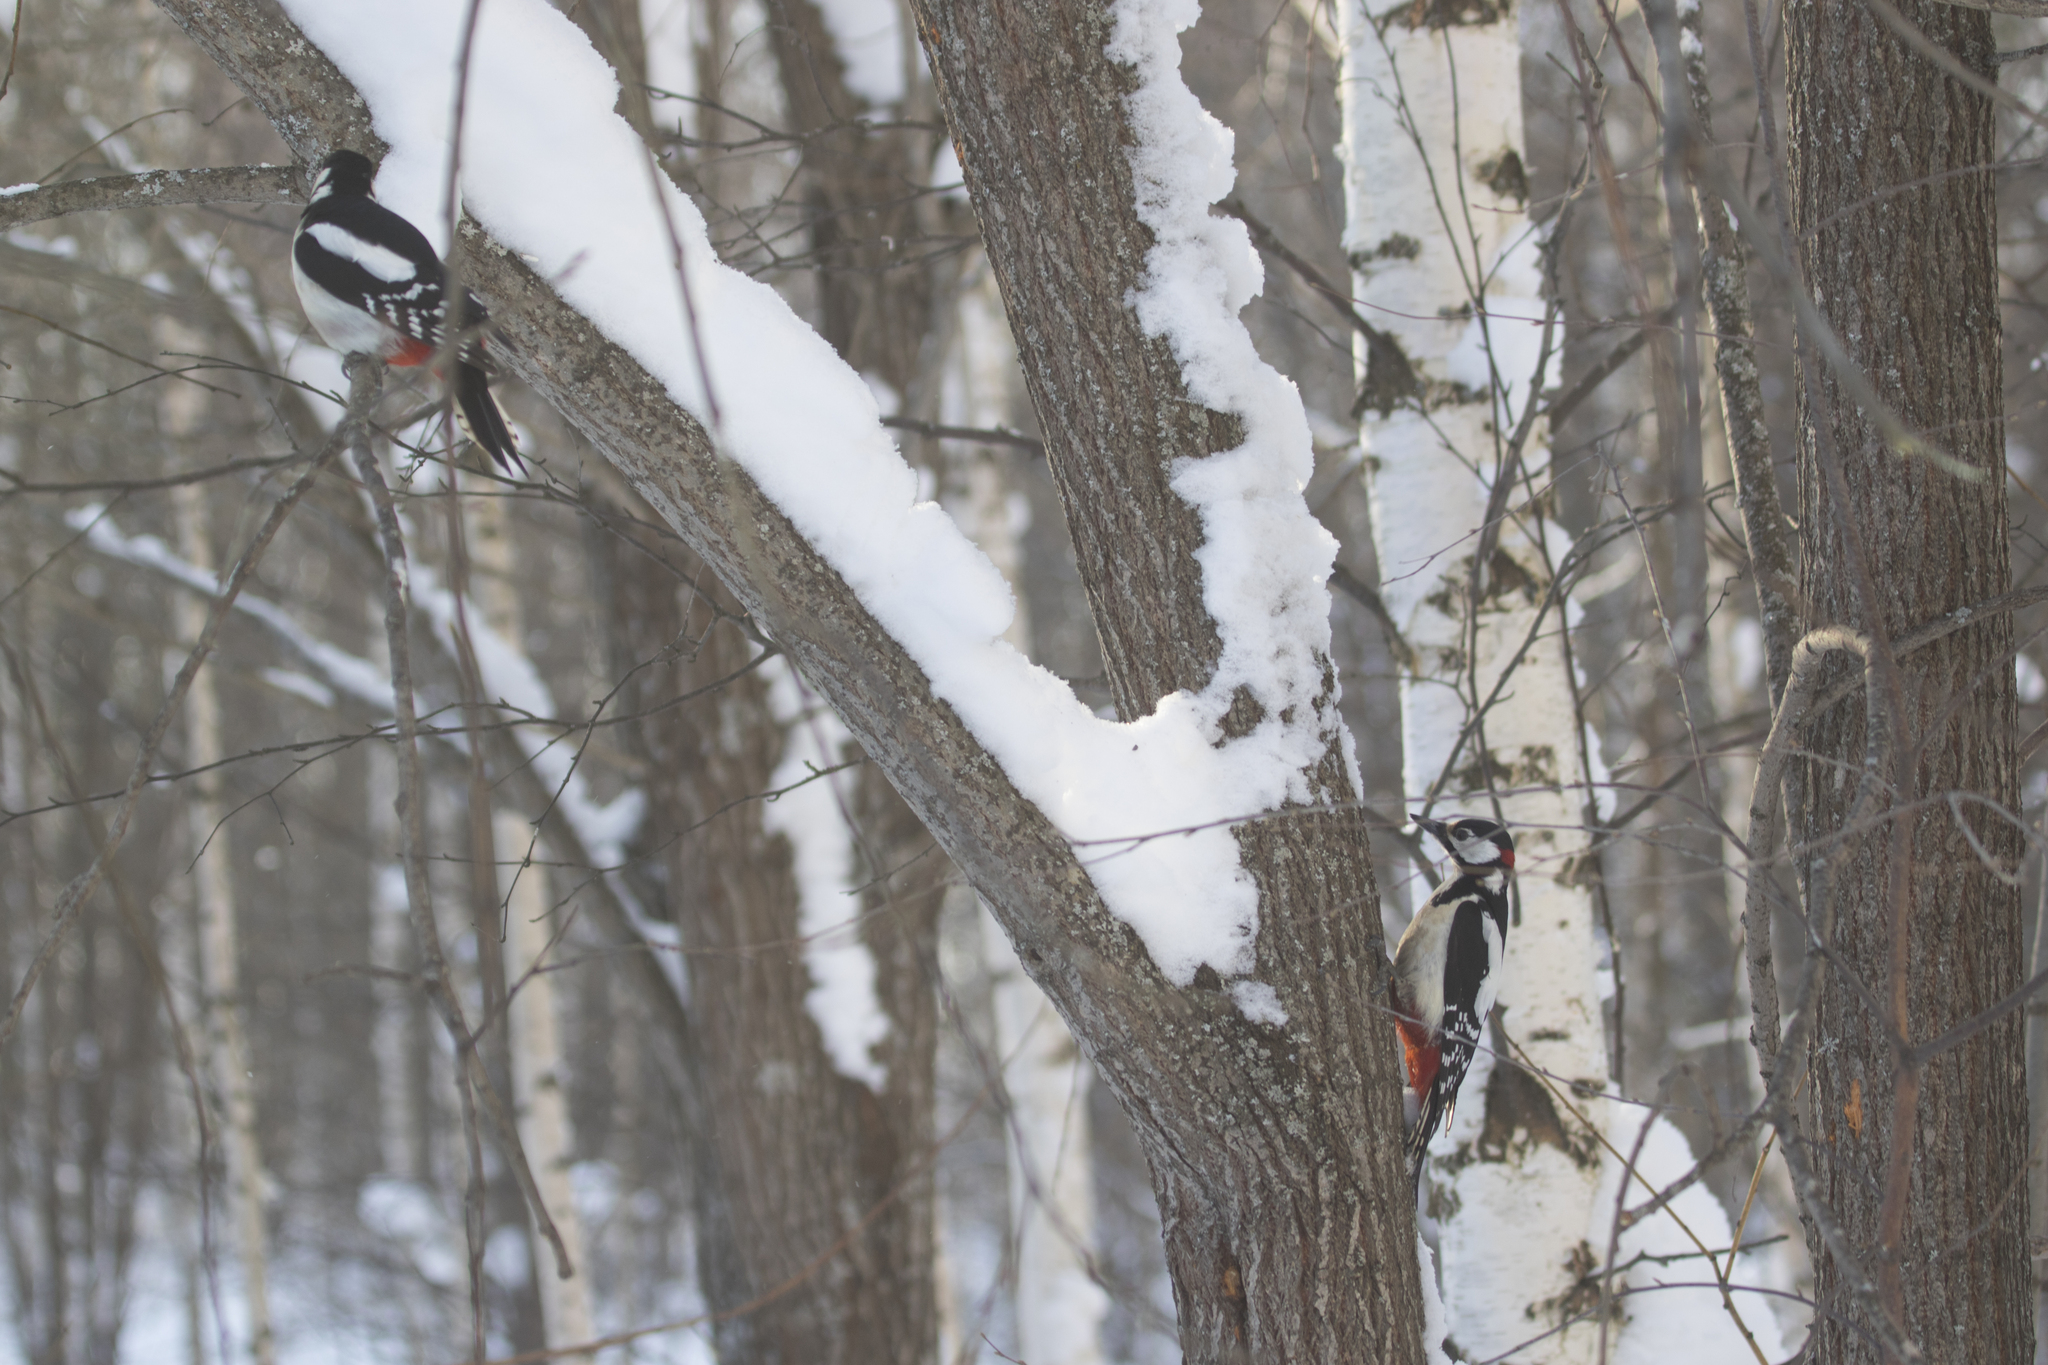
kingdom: Animalia
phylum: Chordata
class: Aves
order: Piciformes
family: Picidae
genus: Dendrocopos
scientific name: Dendrocopos major
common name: Great spotted woodpecker
